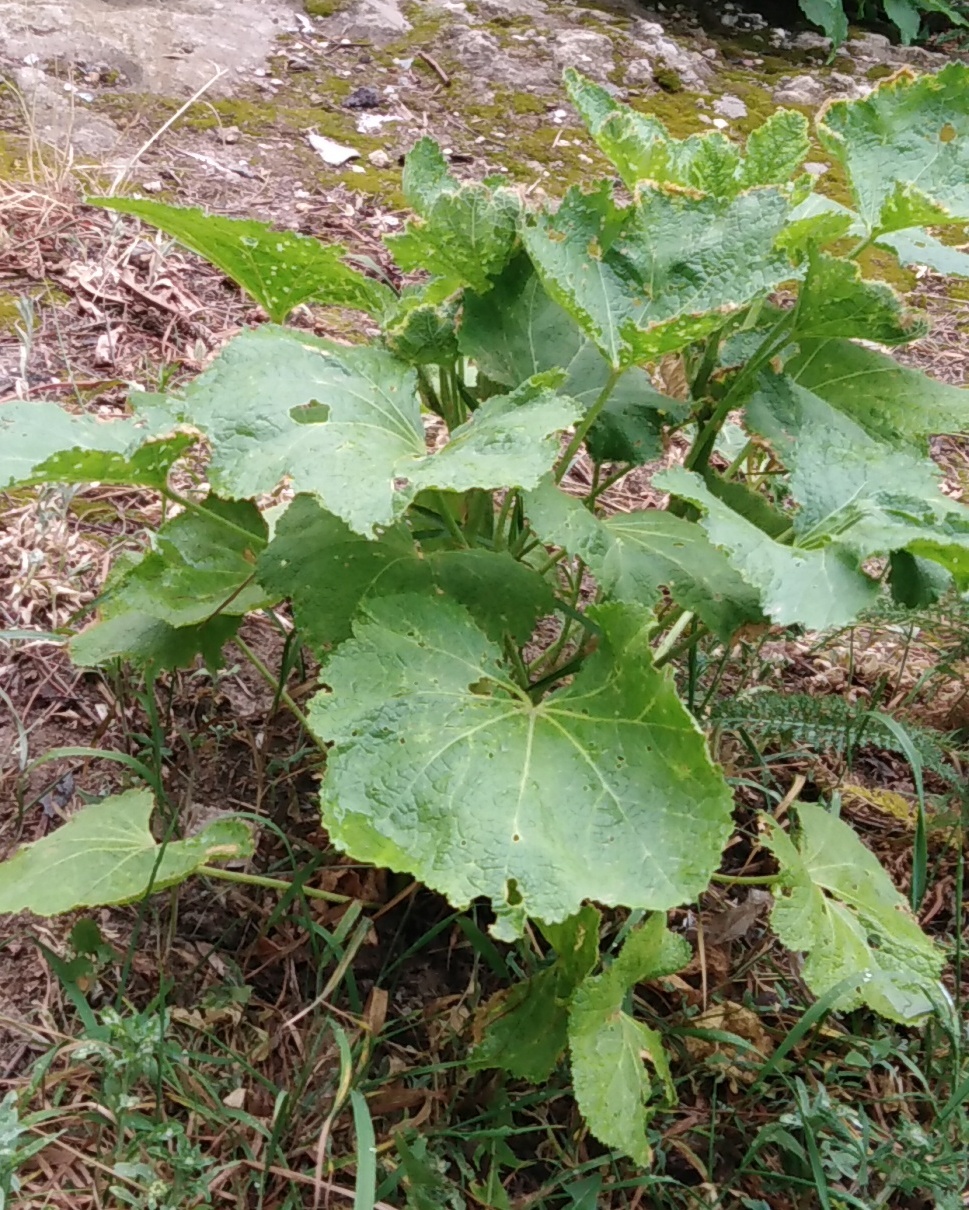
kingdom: Plantae
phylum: Tracheophyta
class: Magnoliopsida
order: Malvales
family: Malvaceae
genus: Alcea
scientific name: Alcea rosea
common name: Hollyhock
